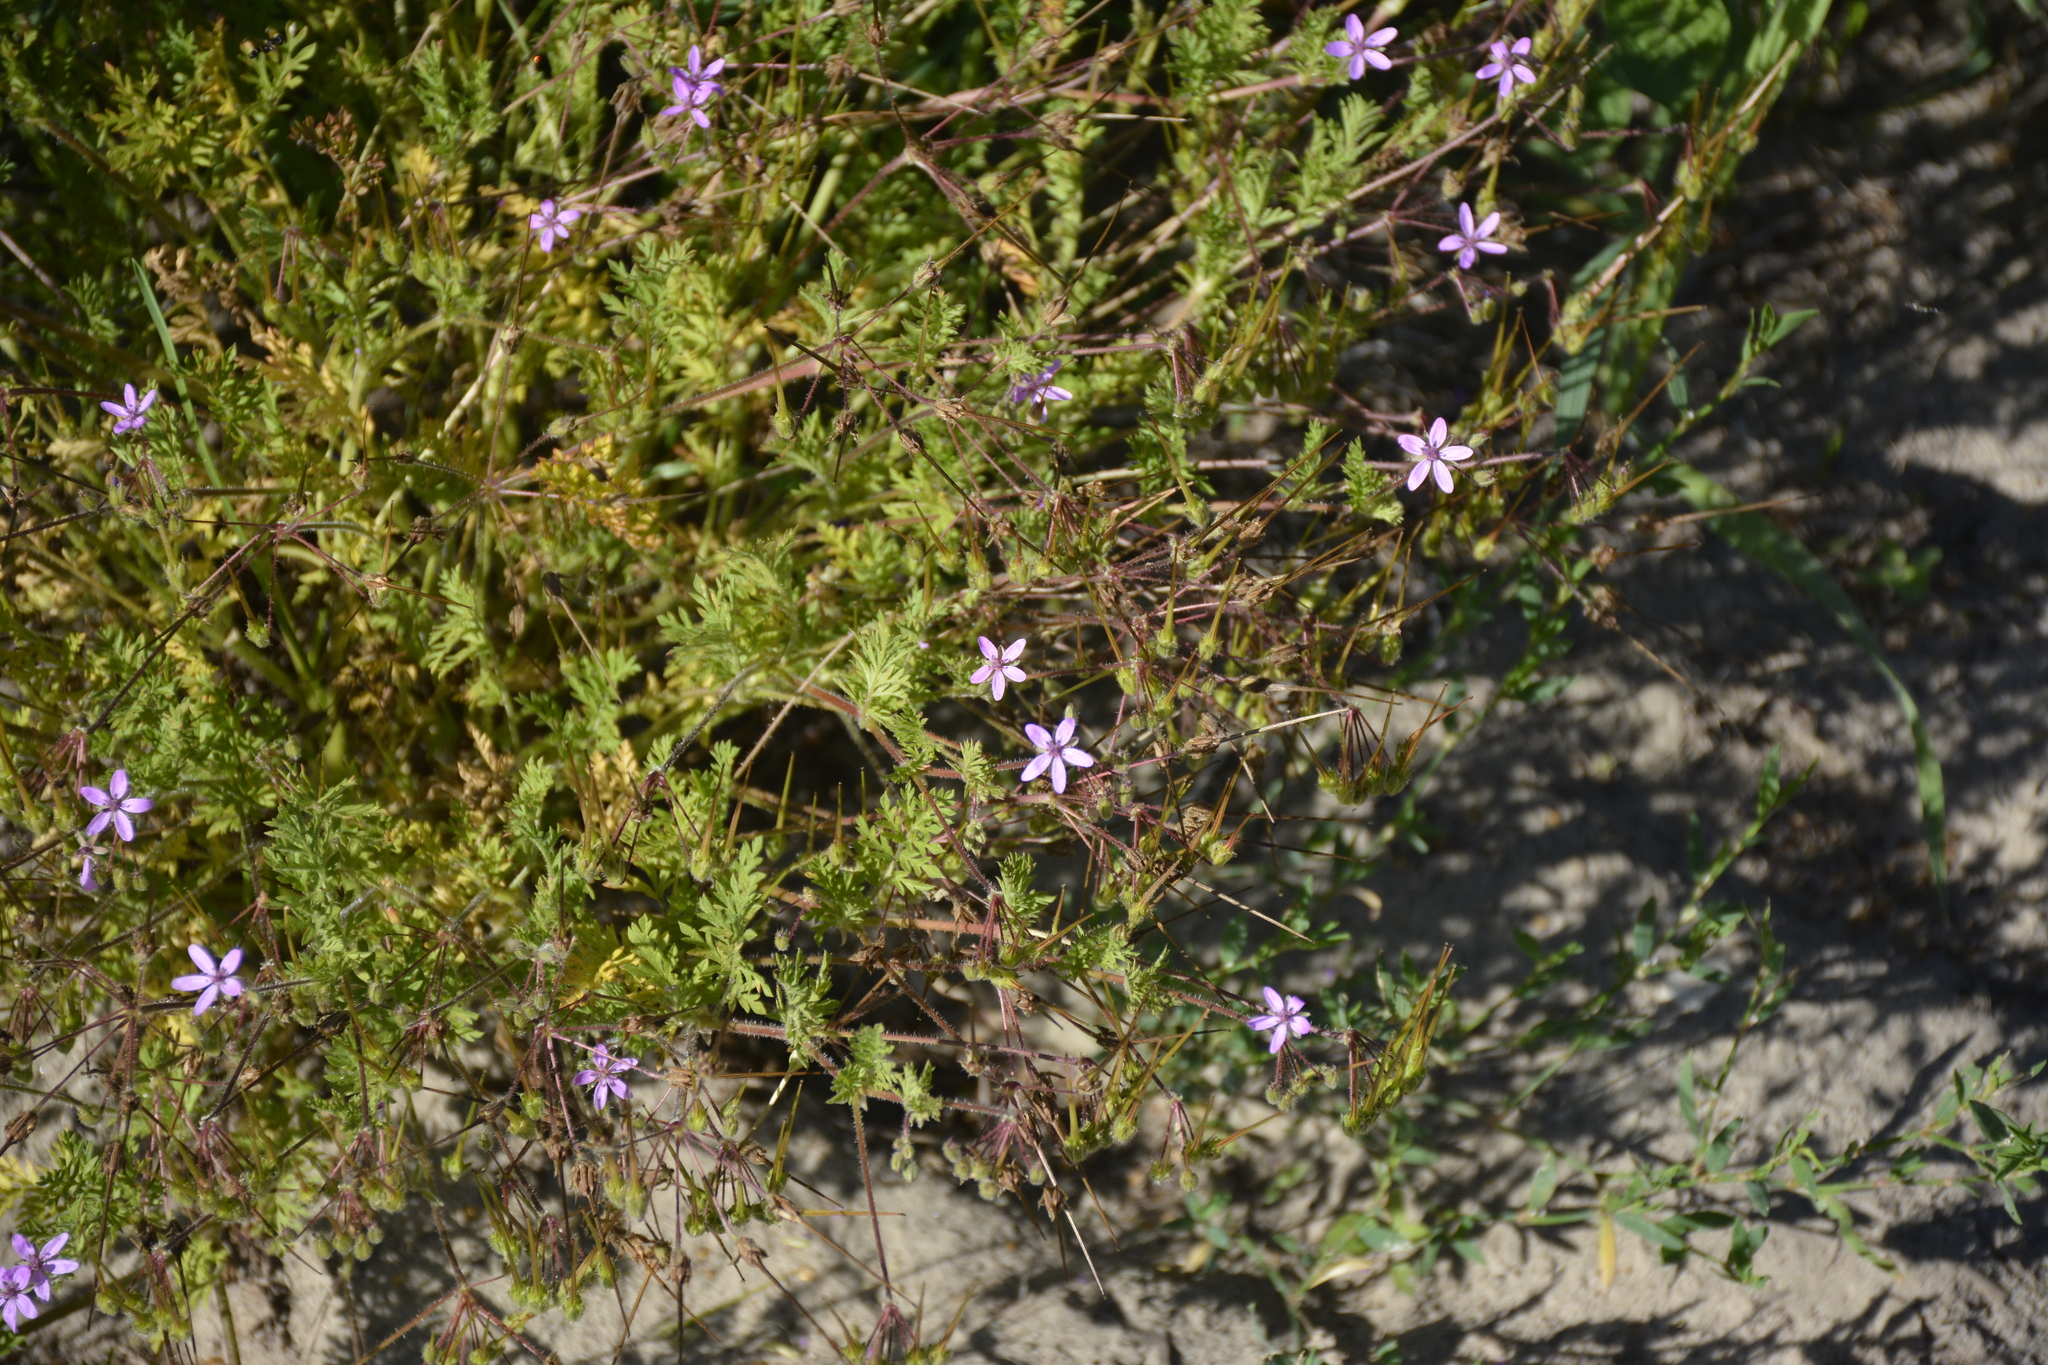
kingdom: Plantae
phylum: Tracheophyta
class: Magnoliopsida
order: Geraniales
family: Geraniaceae
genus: Erodium
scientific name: Erodium cicutarium
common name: Common stork's-bill
